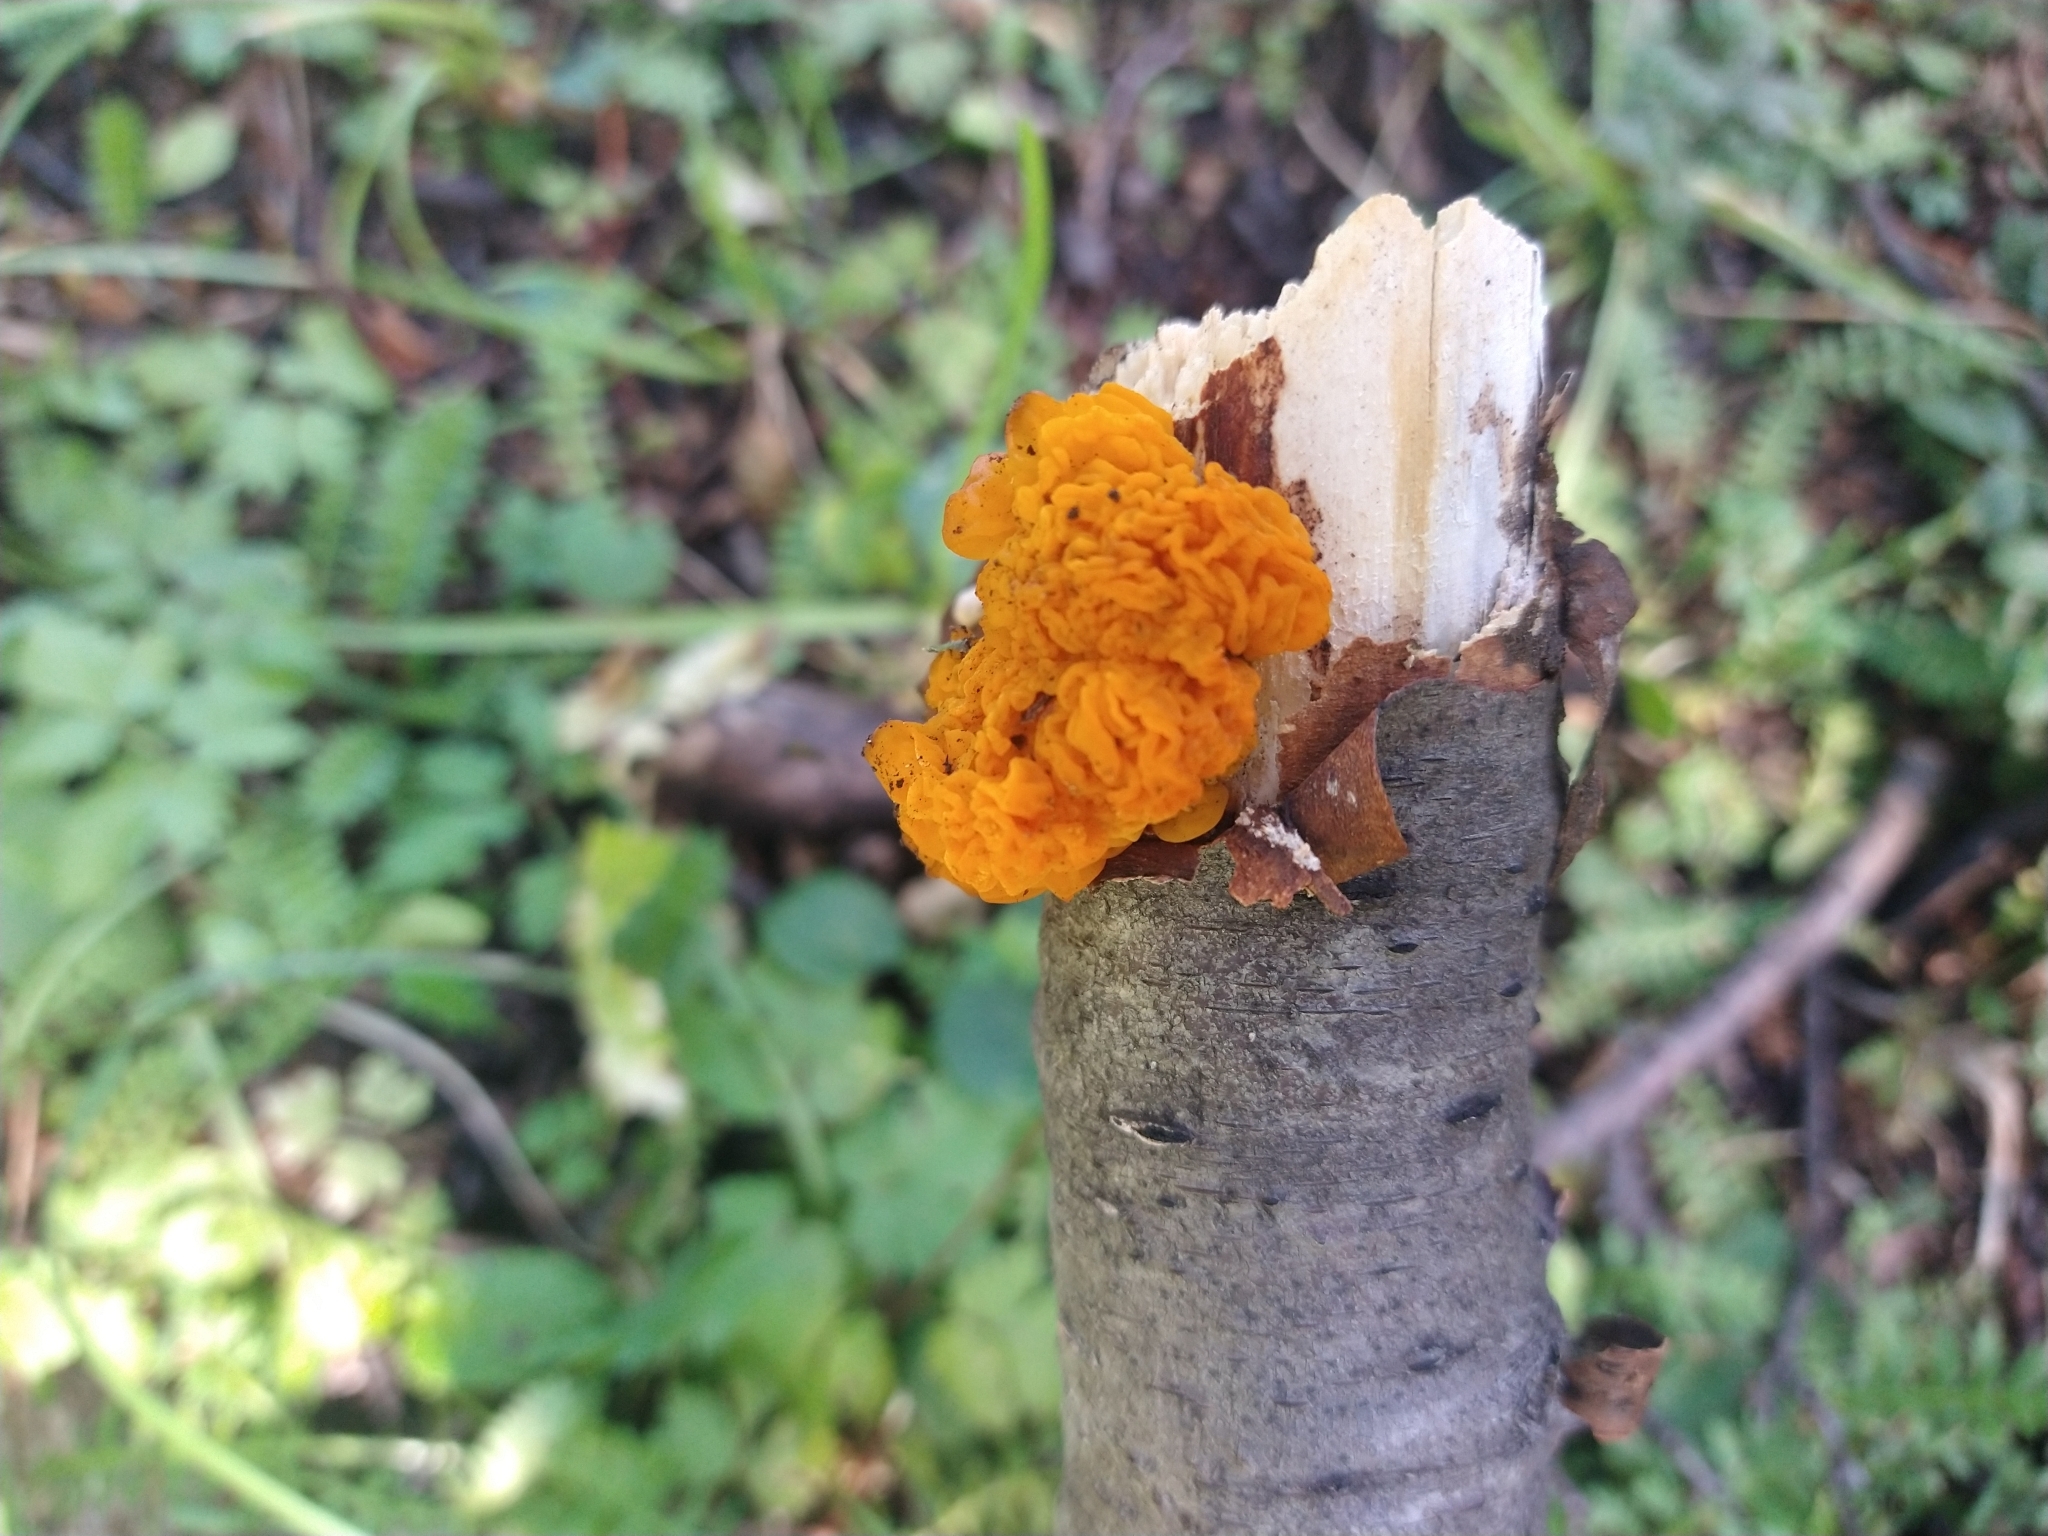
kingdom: Fungi
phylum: Basidiomycota
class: Tremellomycetes
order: Tremellales
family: Tremellaceae
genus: Tremella
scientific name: Tremella mesenterica
